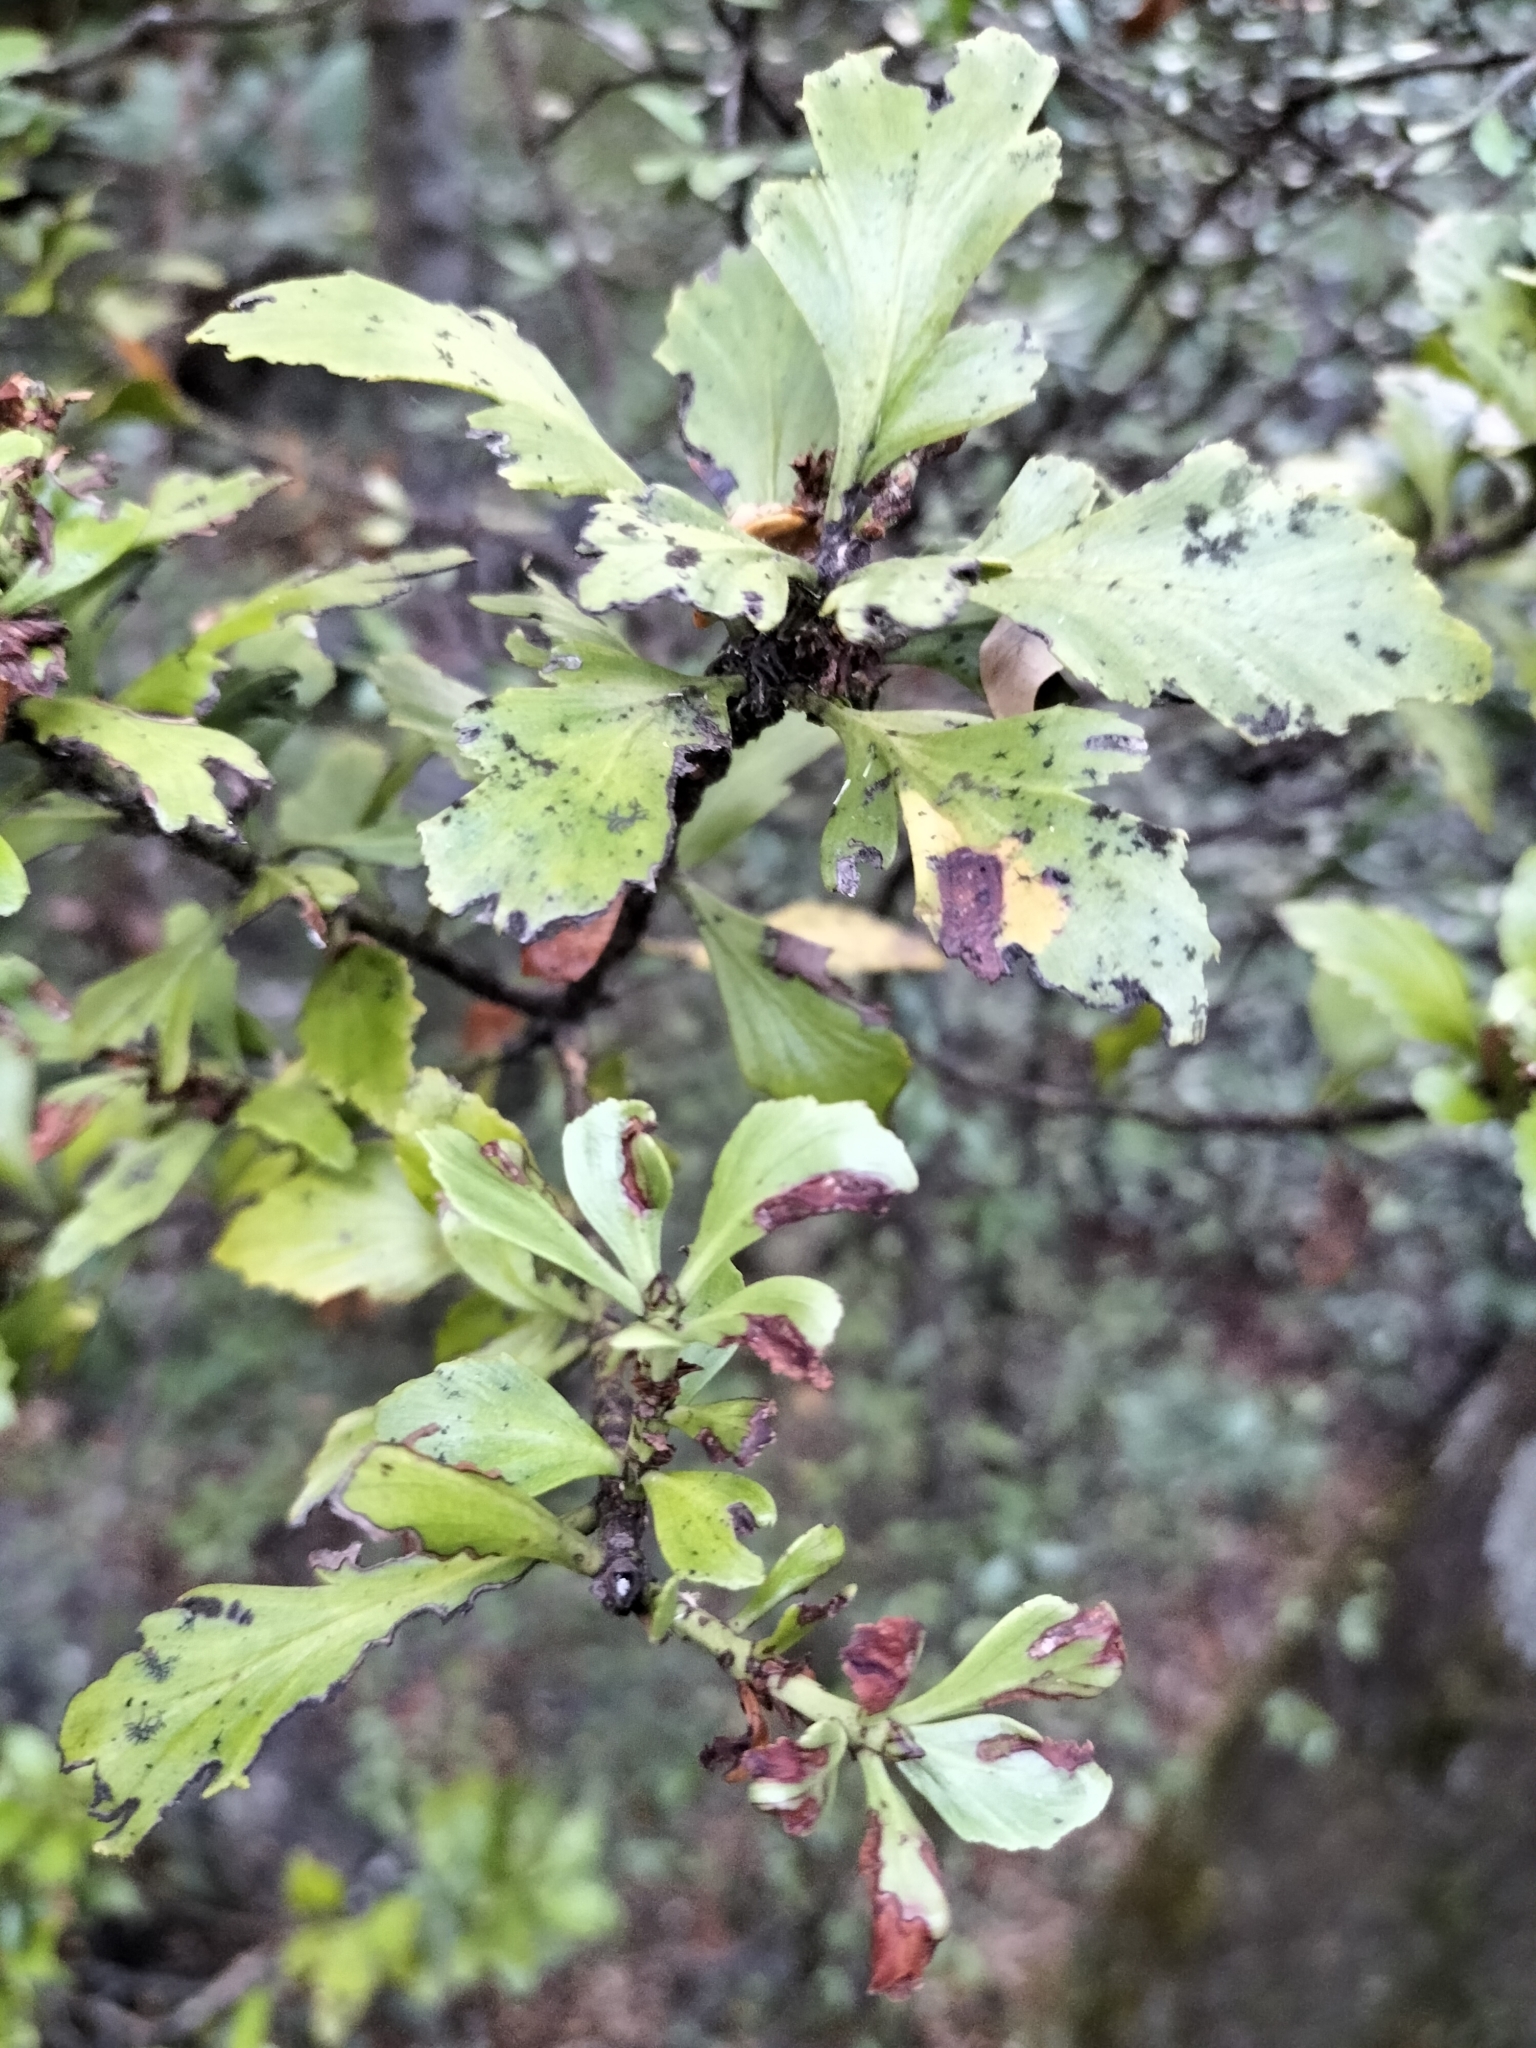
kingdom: Plantae
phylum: Tracheophyta
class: Pinopsida
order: Pinales
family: Phyllocladaceae
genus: Phyllocladus
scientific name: Phyllocladus trichomanoides
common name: Celery pine
